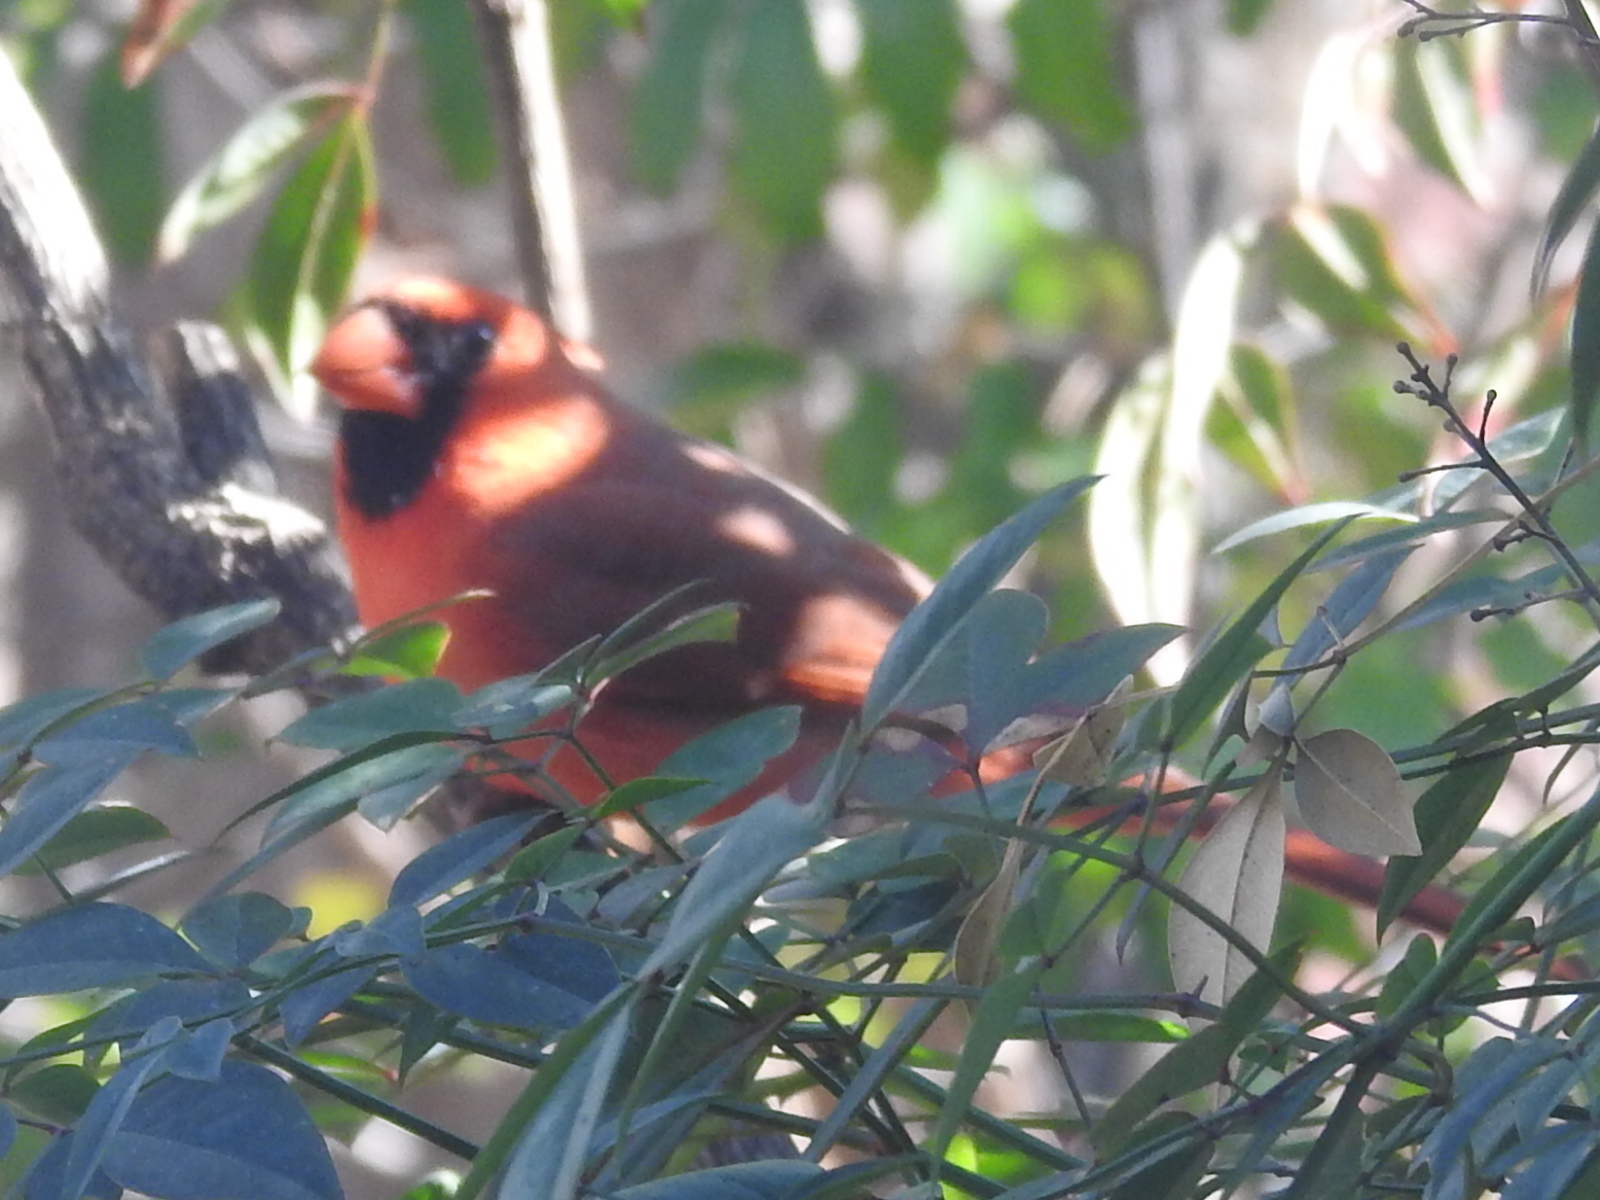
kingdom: Animalia
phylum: Chordata
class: Aves
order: Passeriformes
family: Cardinalidae
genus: Cardinalis
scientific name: Cardinalis cardinalis
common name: Northern cardinal
